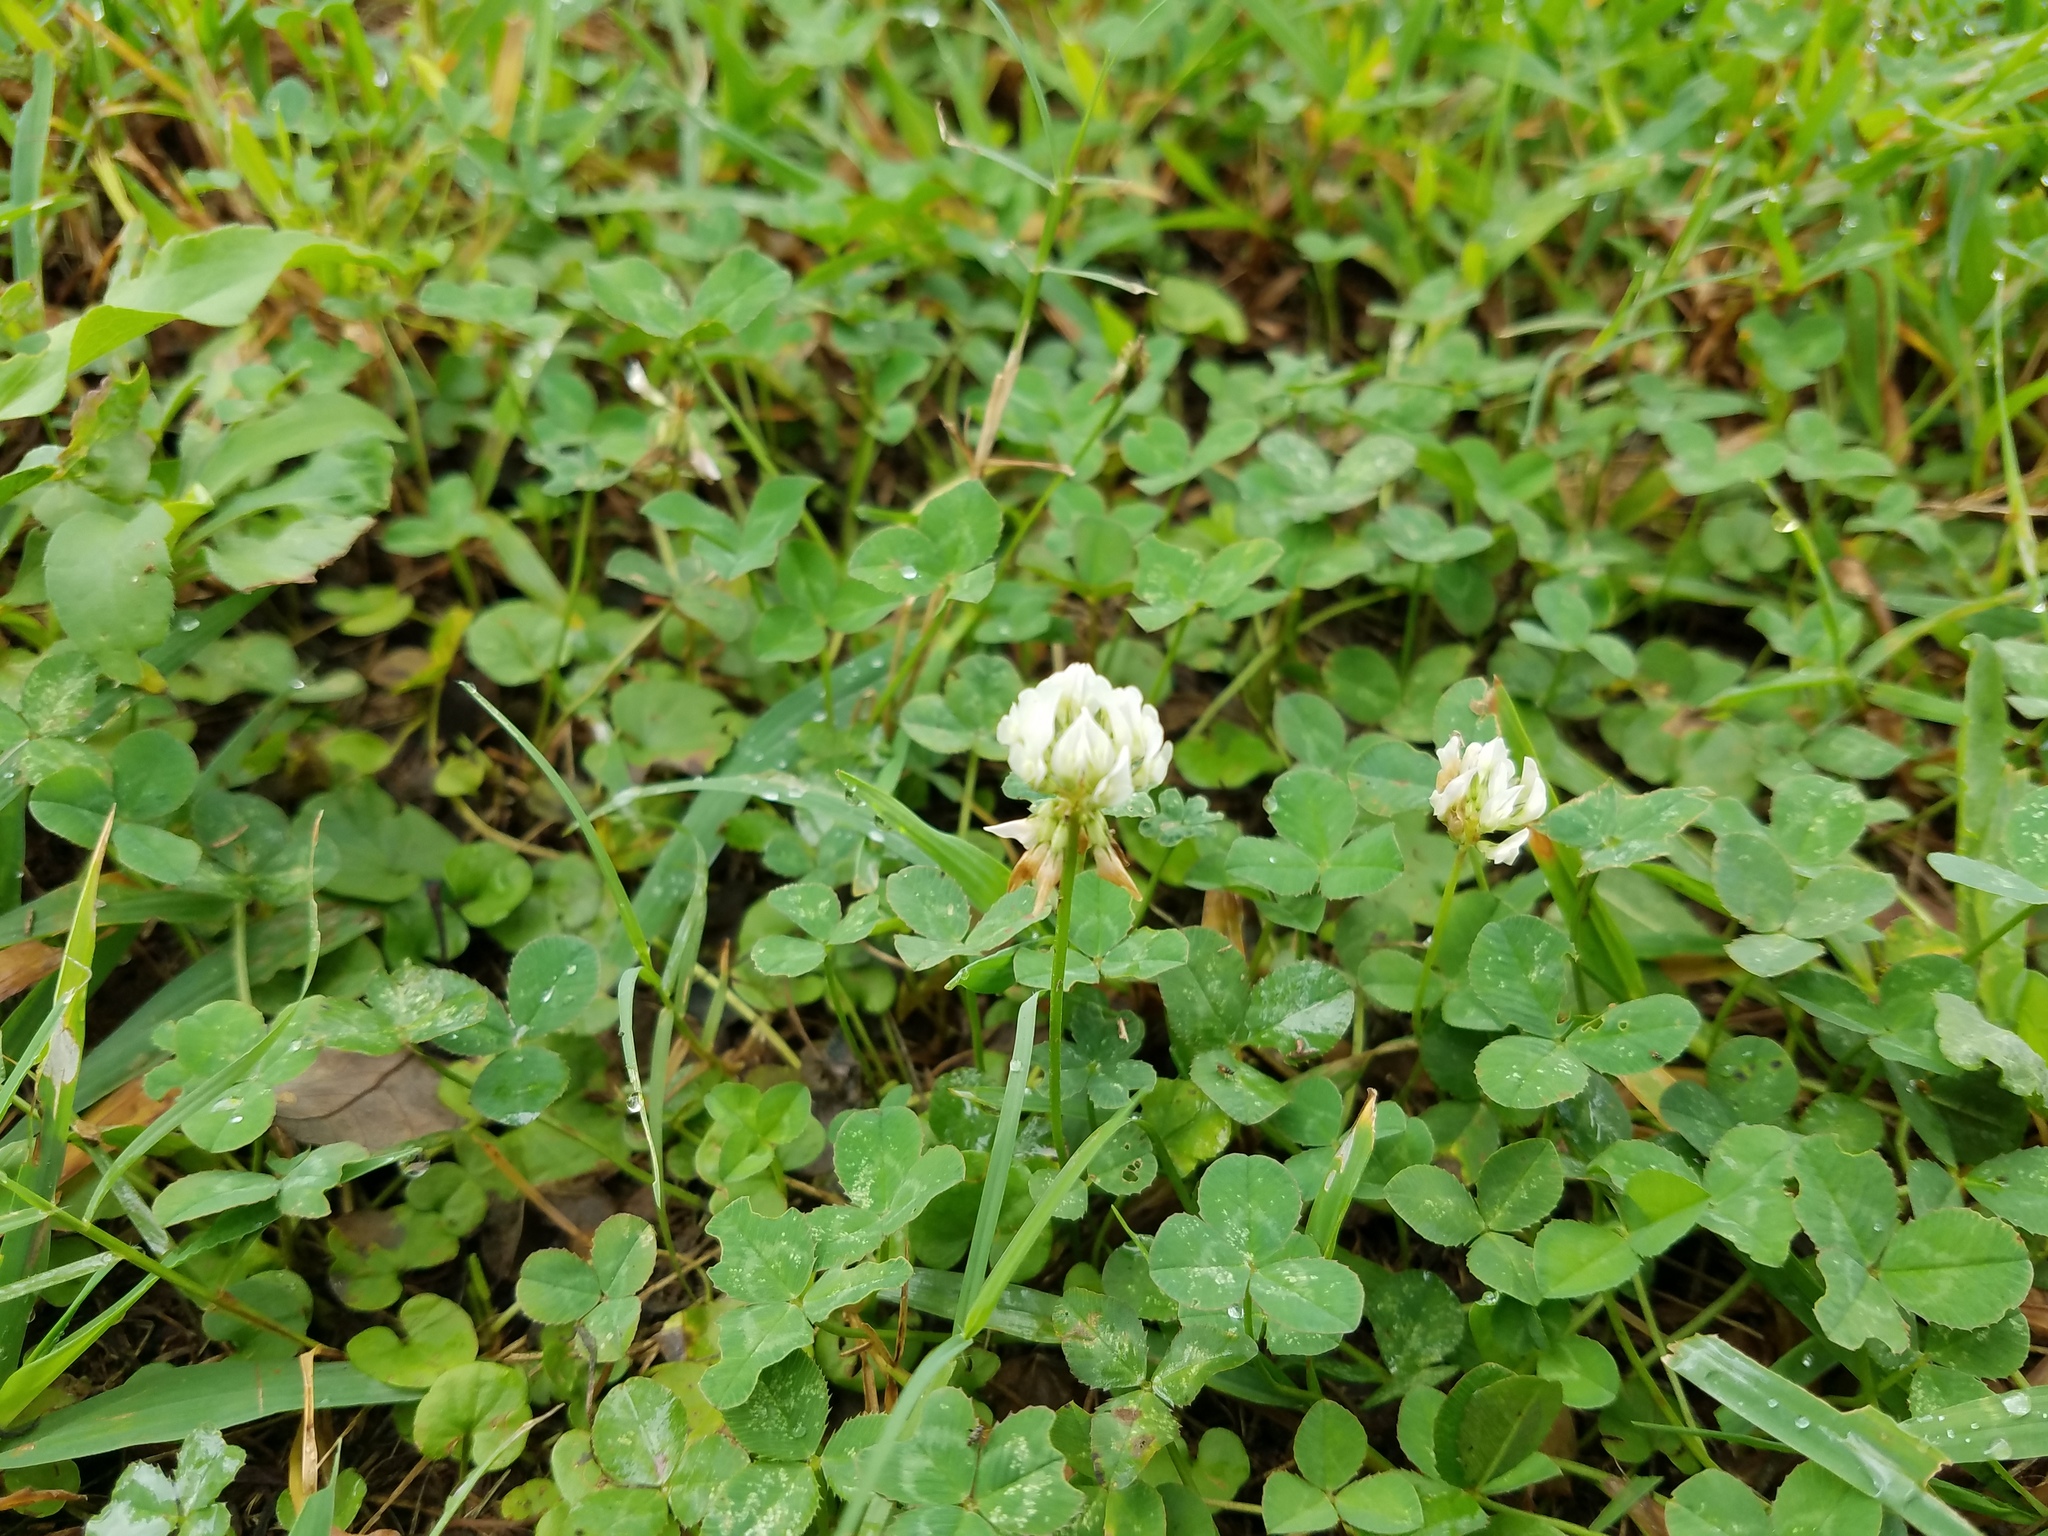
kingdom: Plantae
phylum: Tracheophyta
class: Magnoliopsida
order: Fabales
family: Fabaceae
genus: Trifolium
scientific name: Trifolium repens
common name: White clover
